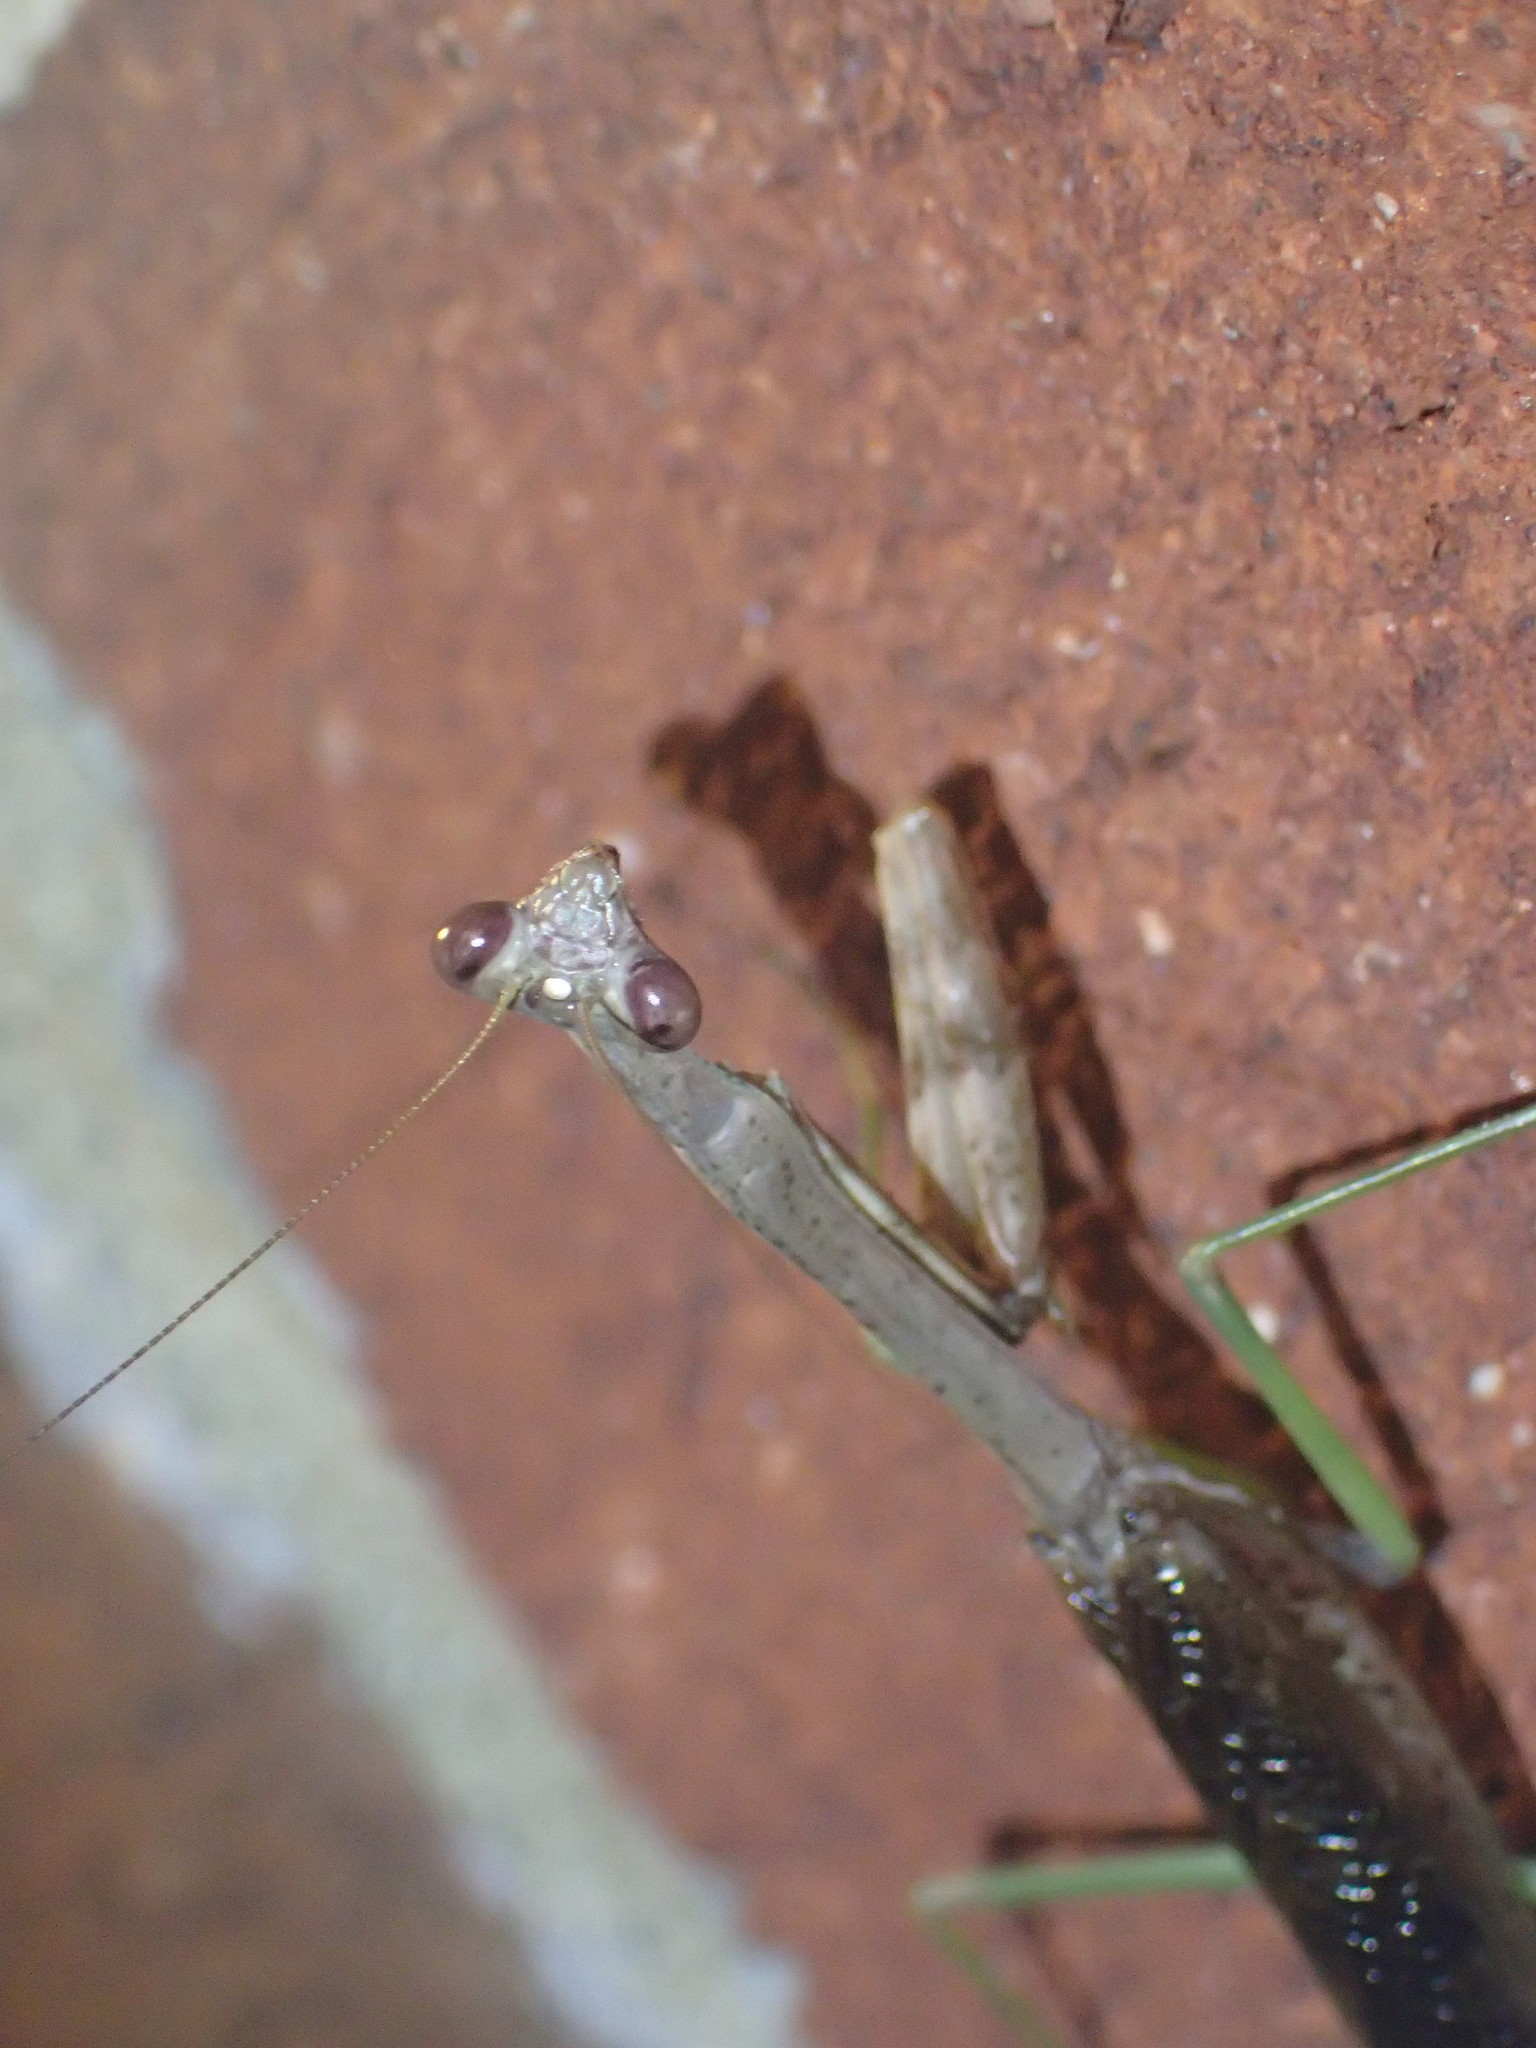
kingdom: Animalia
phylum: Arthropoda
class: Insecta
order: Mantodea
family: Mantidae
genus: Stagmomantis
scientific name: Stagmomantis carolina
